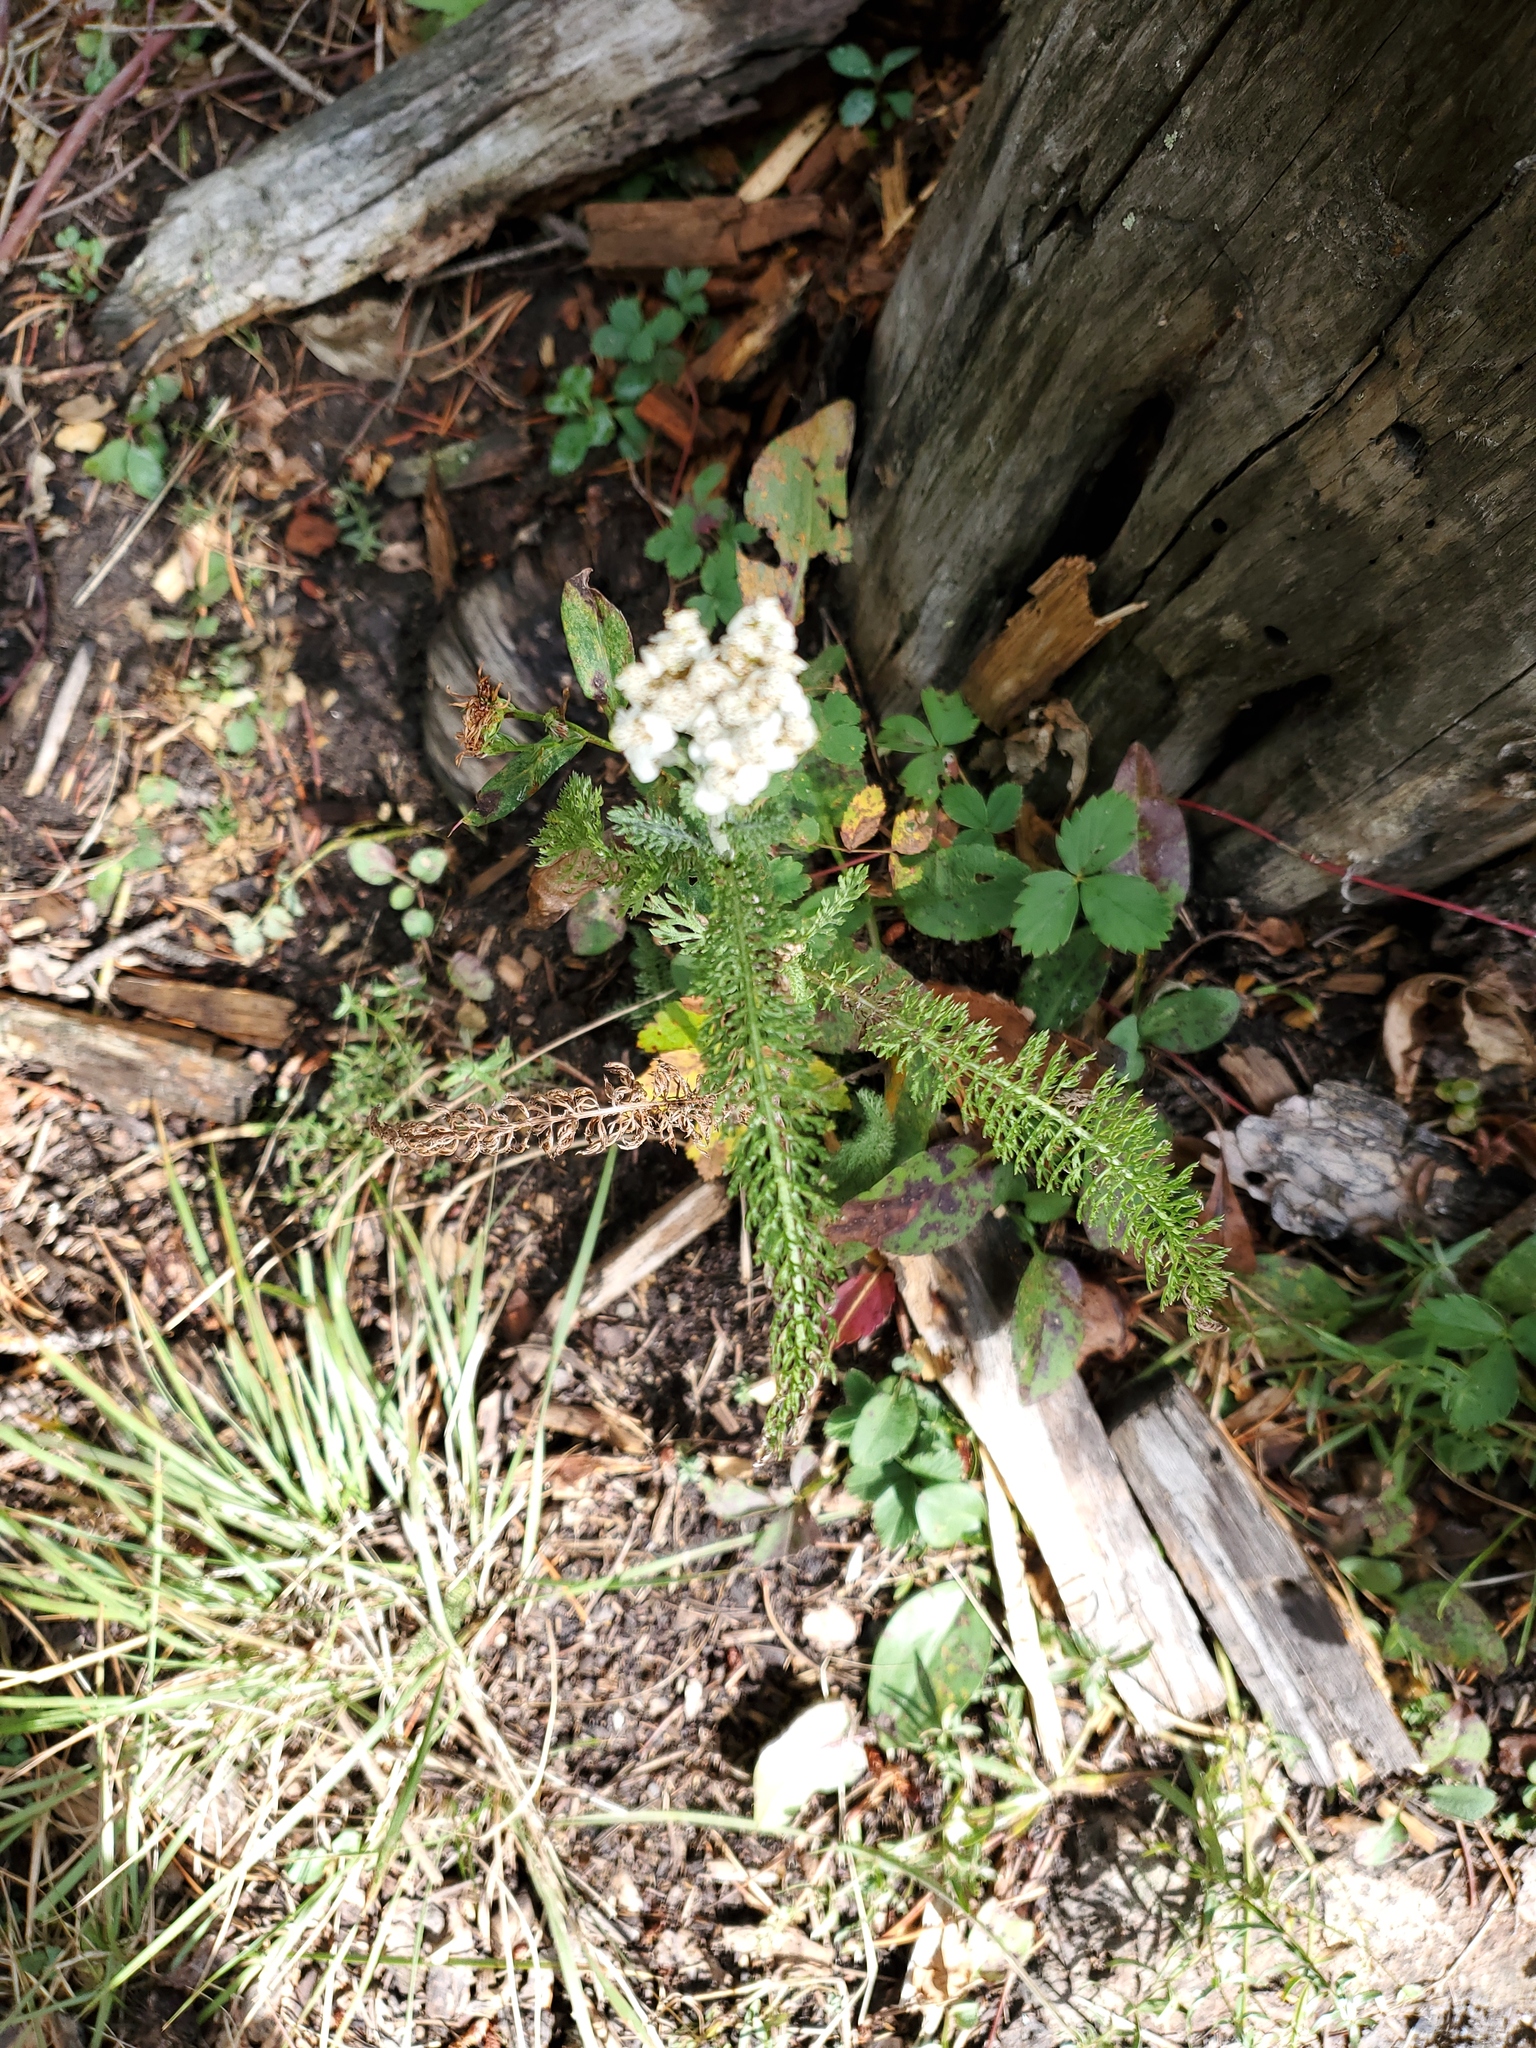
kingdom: Plantae
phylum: Tracheophyta
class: Magnoliopsida
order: Asterales
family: Asteraceae
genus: Achillea
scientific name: Achillea millefolium
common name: Yarrow
